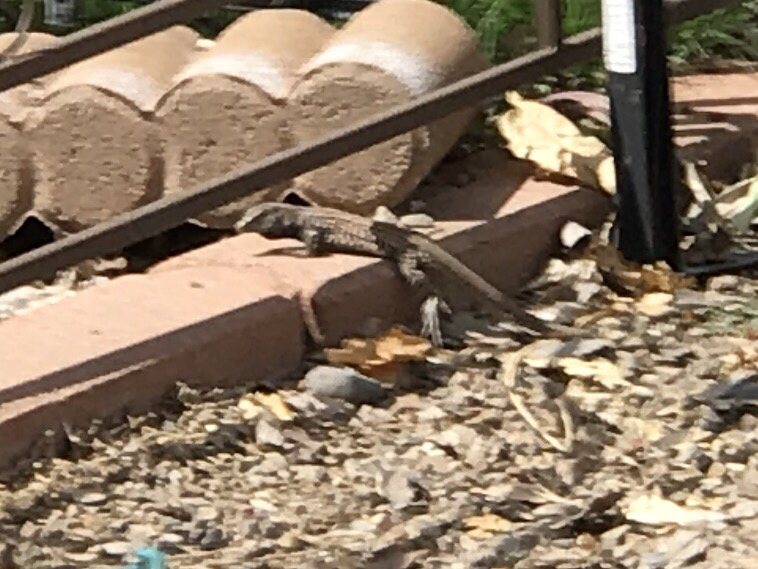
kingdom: Animalia
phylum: Chordata
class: Squamata
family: Teiidae
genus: Aspidoscelis
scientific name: Aspidoscelis tigris
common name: Tiger whiptail
